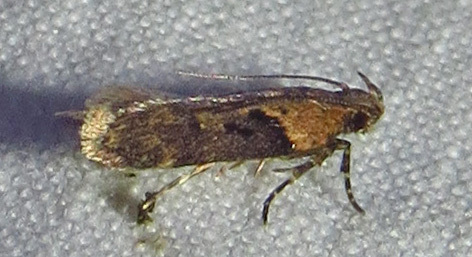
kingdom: Animalia
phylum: Arthropoda
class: Insecta
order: Lepidoptera
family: Gelechiidae
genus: Chionodes
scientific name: Chionodes mediofuscella
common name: Black-smudged chionodes moth
